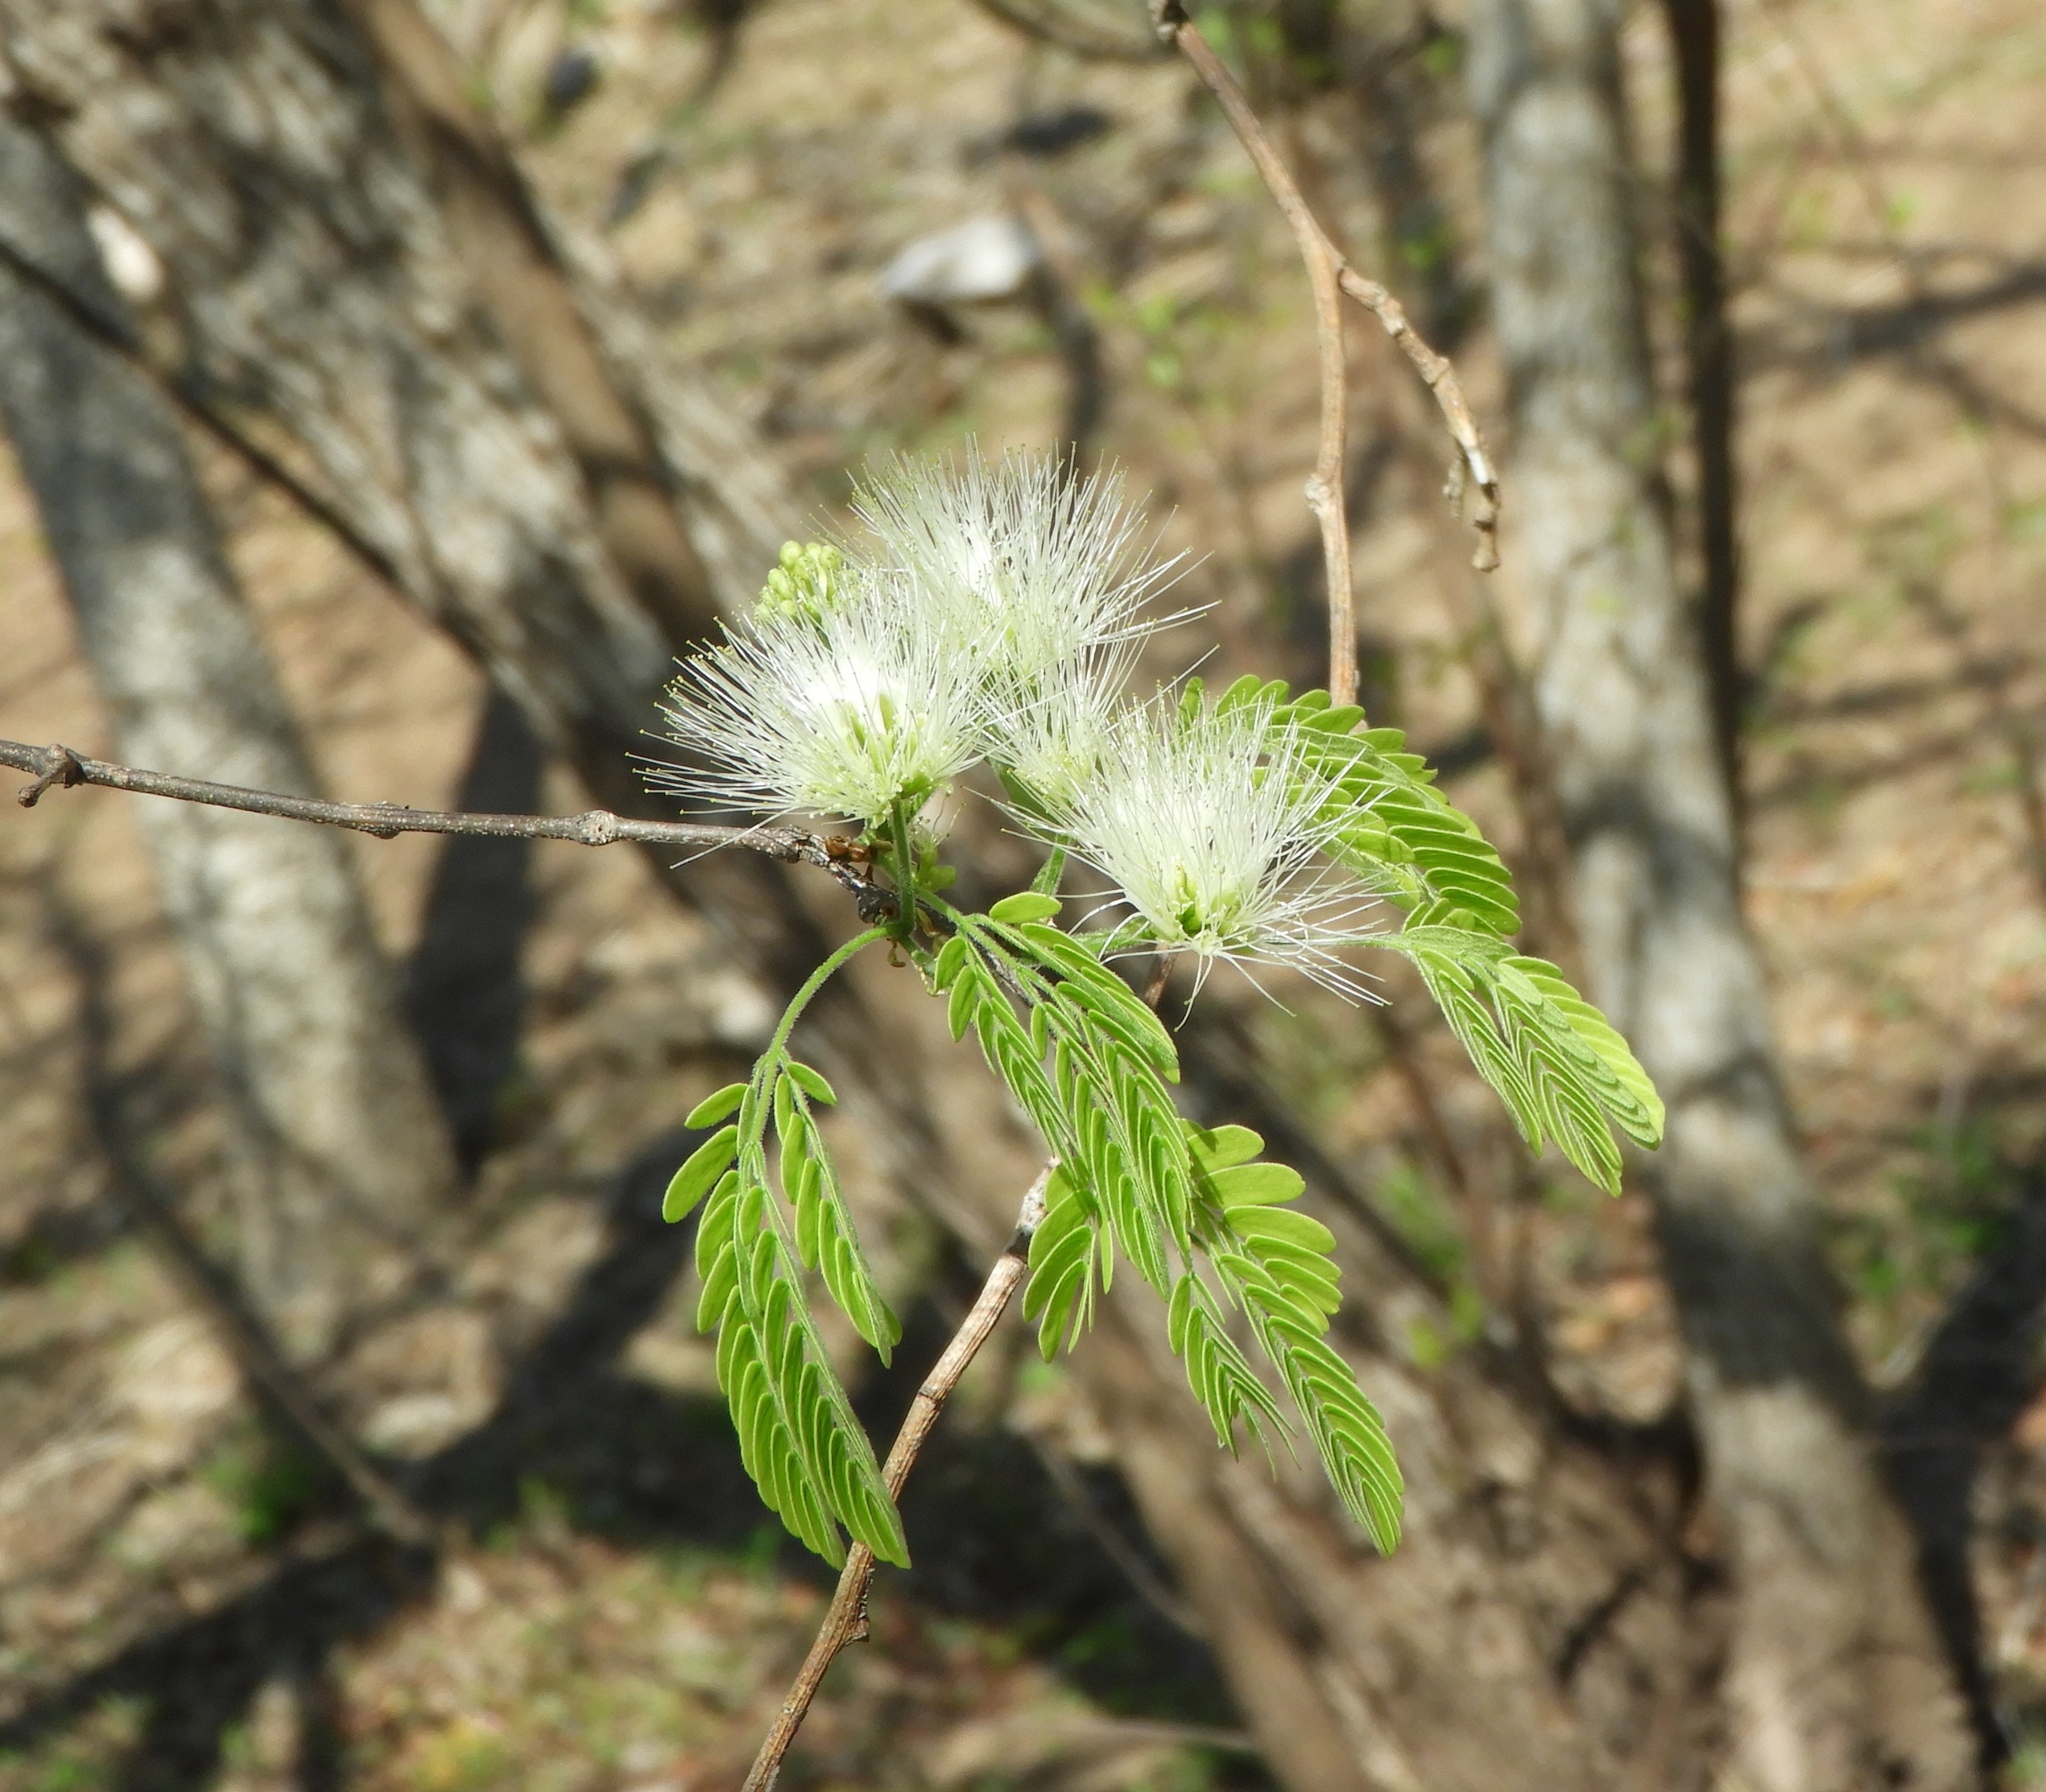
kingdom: Plantae
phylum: Tracheophyta
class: Magnoliopsida
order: Fabales
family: Fabaceae
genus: Chloroleucon
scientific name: Chloroleucon mangense
